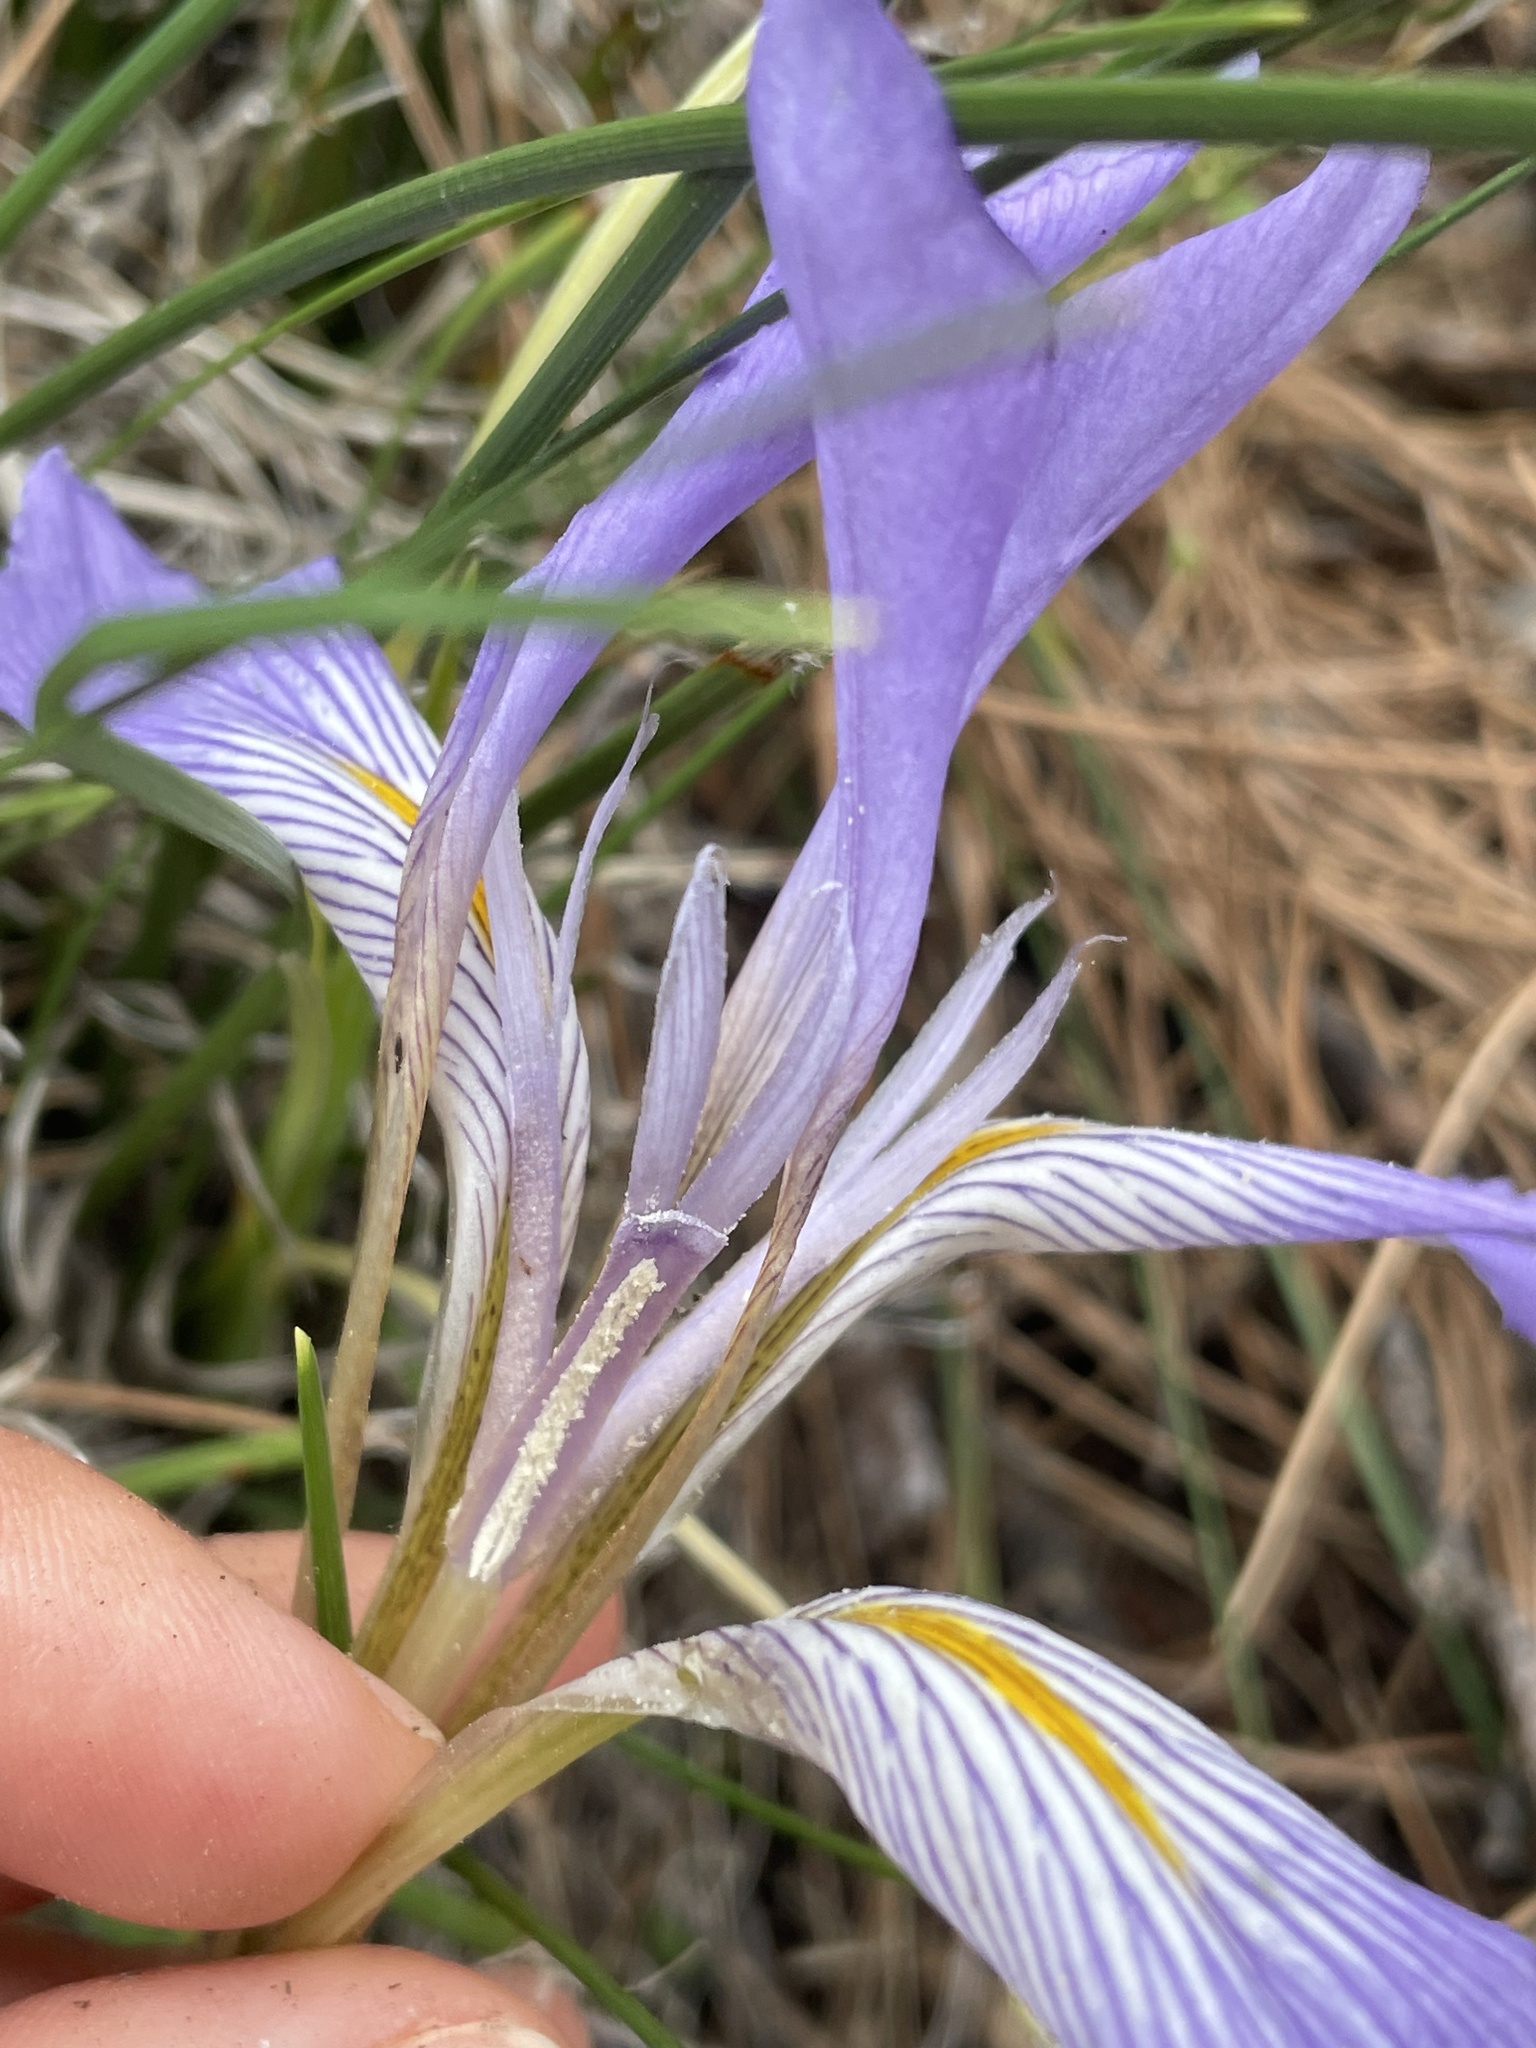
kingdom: Plantae
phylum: Tracheophyta
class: Liliopsida
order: Asparagales
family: Iridaceae
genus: Iris
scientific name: Iris unguicularis
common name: Algerian iris
